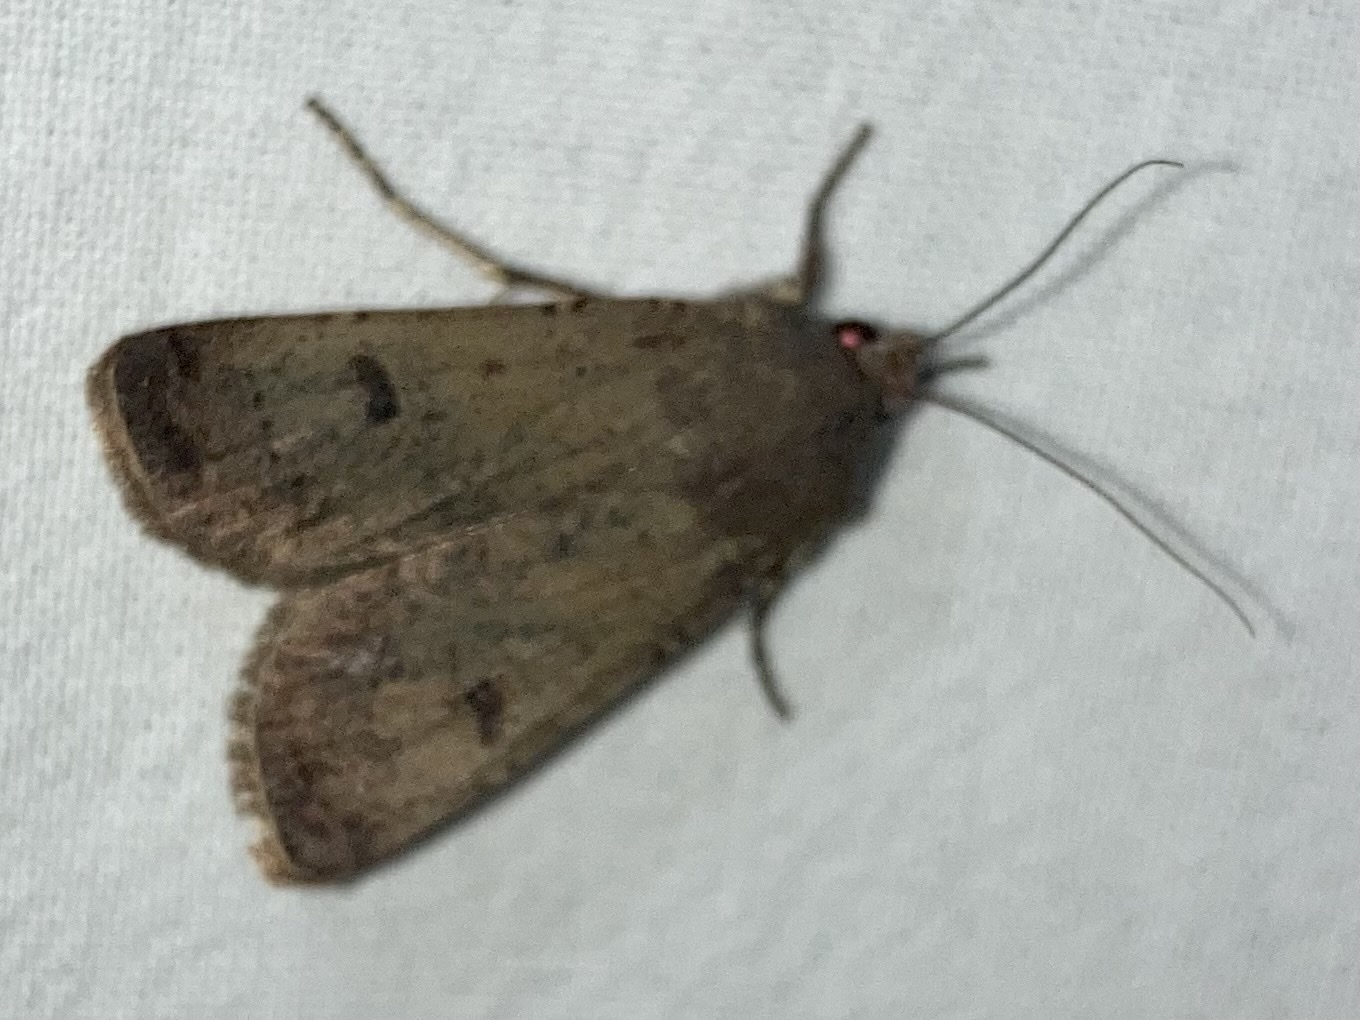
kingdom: Animalia
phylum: Arthropoda
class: Insecta
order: Lepidoptera
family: Noctuidae
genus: Agrotis
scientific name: Agrotis trux
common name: Crescent dart
